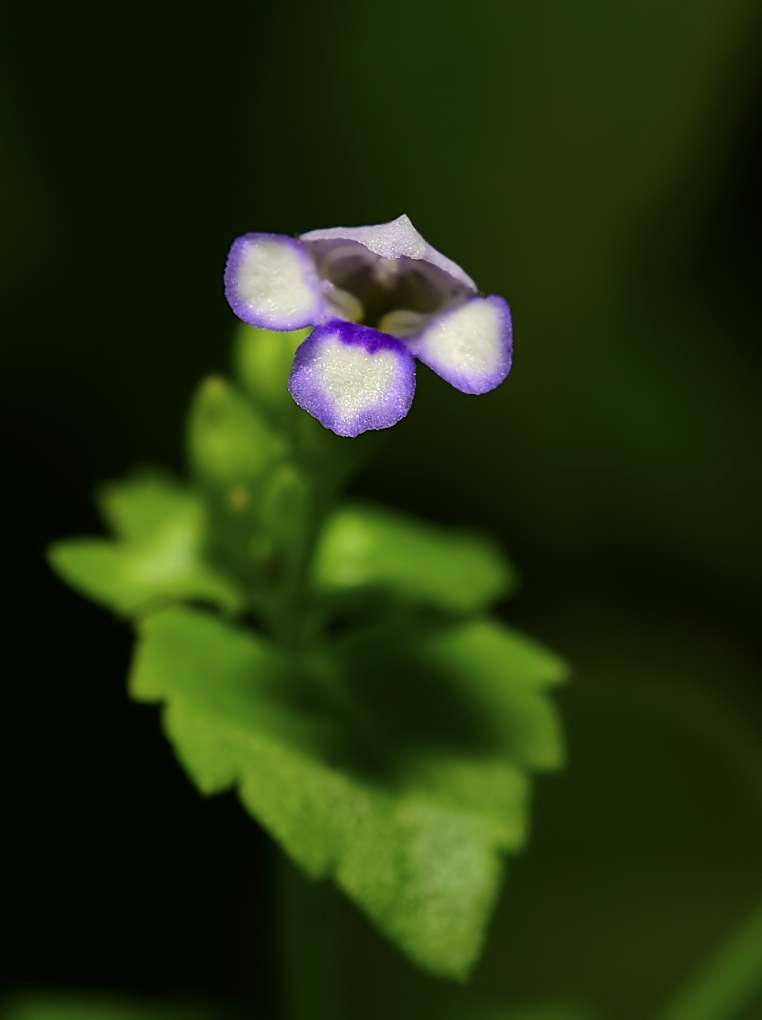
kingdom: Plantae
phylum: Tracheophyta
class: Magnoliopsida
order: Lamiales
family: Linderniaceae
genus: Torenia
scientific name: Torenia crustacea
